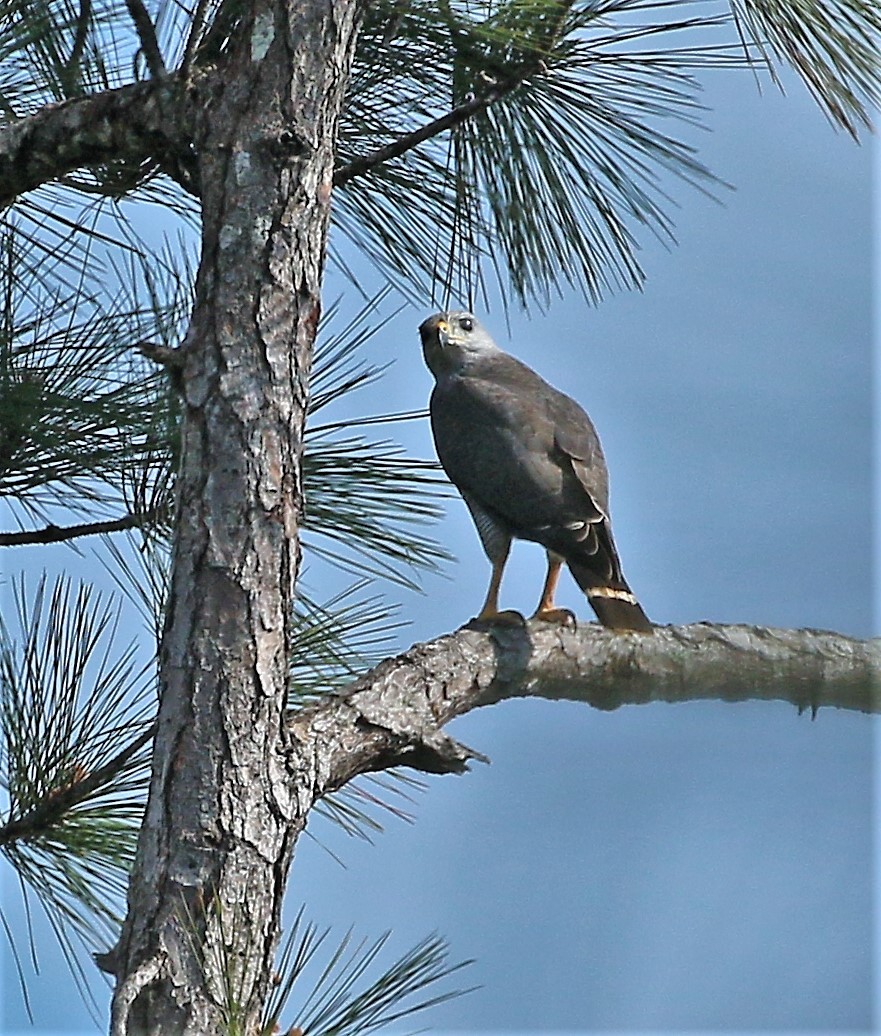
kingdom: Animalia
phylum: Chordata
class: Aves
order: Accipitriformes
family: Accipitridae
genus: Buteo
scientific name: Buteo nitidus
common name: Grey-lined hawk
